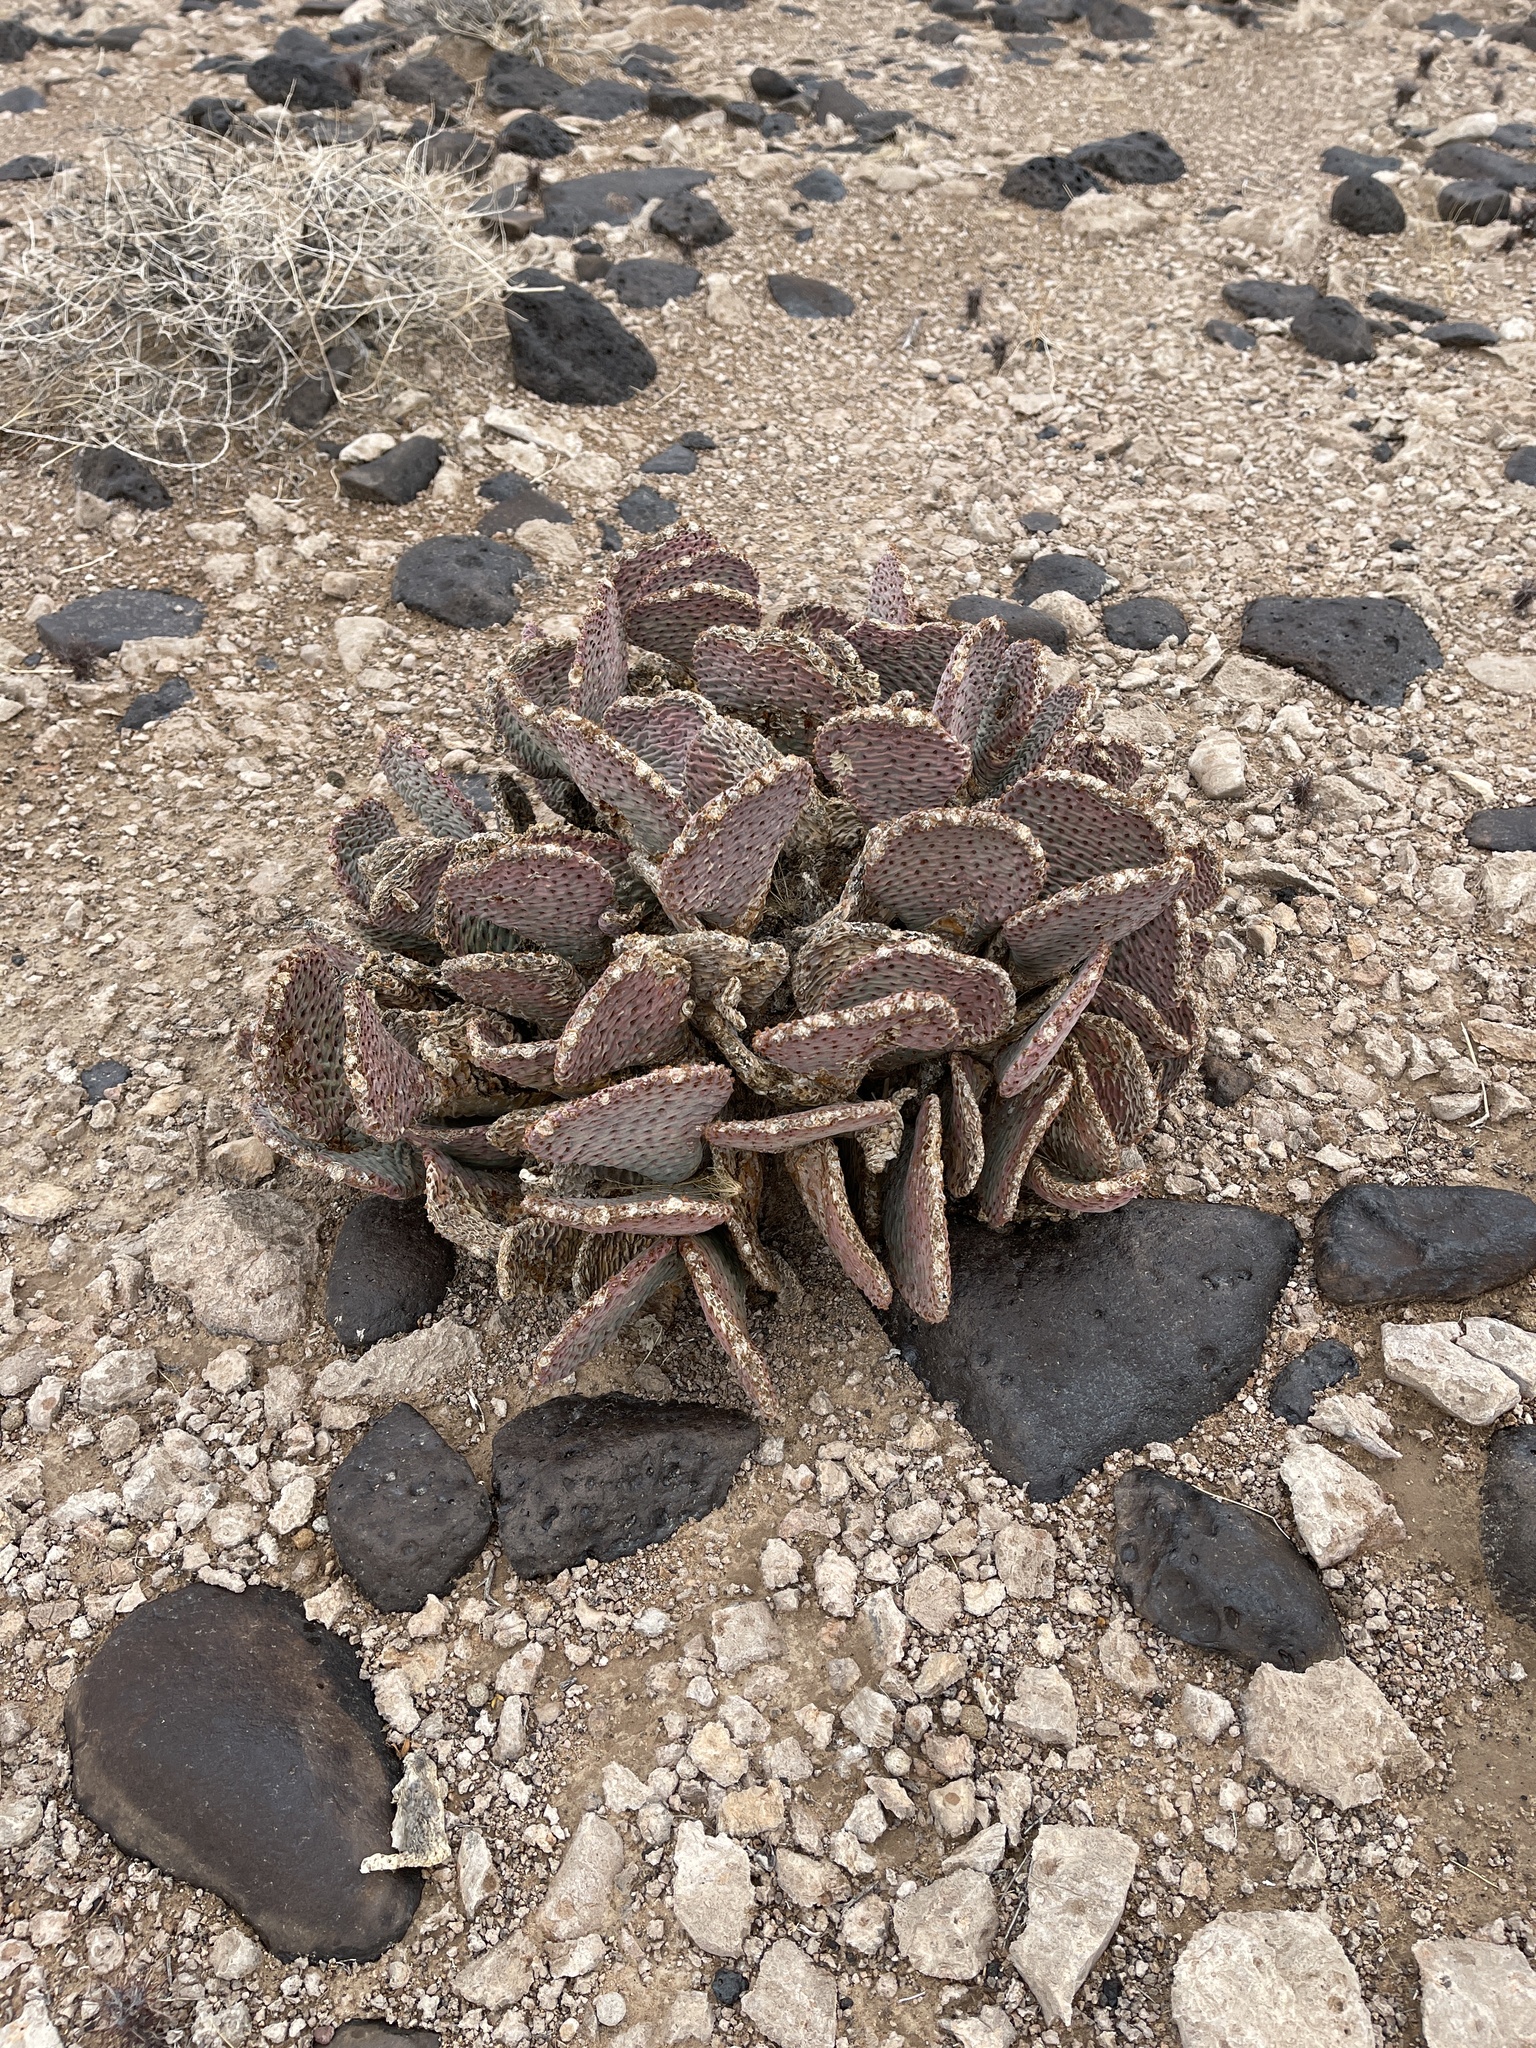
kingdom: Plantae
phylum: Tracheophyta
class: Magnoliopsida
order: Caryophyllales
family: Cactaceae
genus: Opuntia
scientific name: Opuntia basilaris
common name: Beavertail prickly-pear
